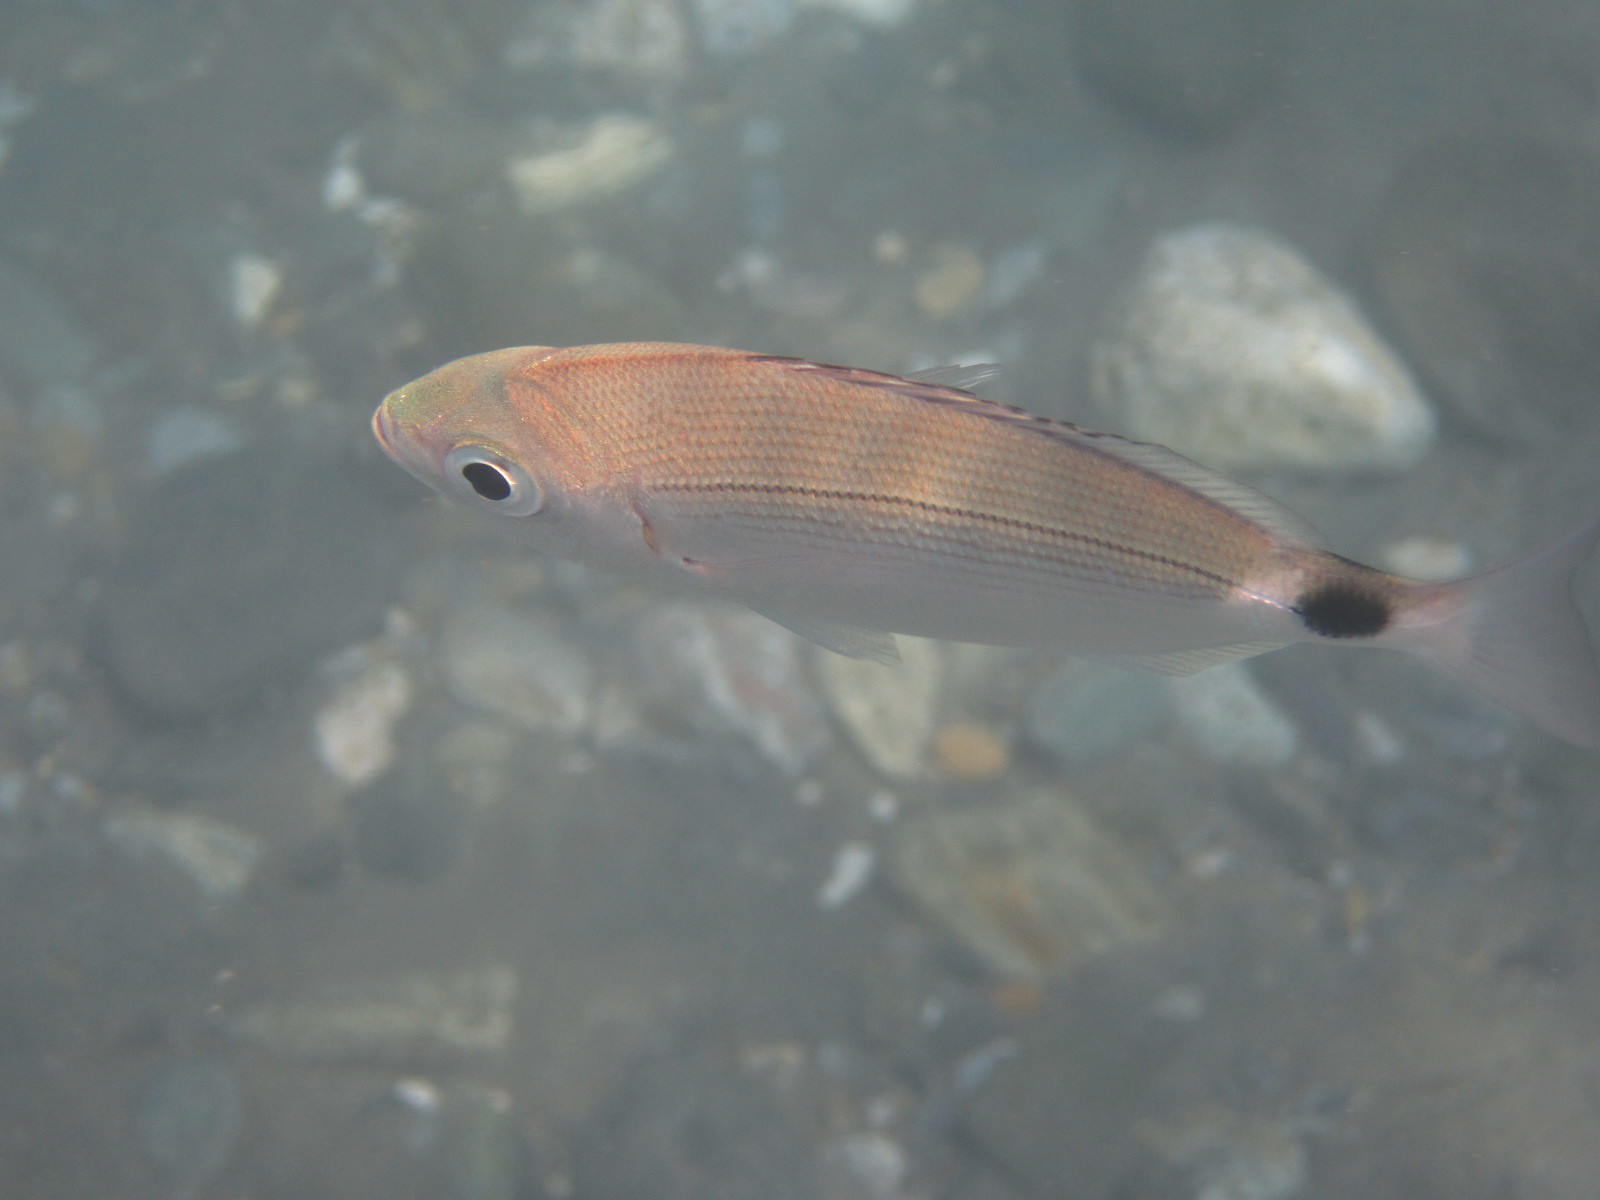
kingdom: Animalia
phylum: Chordata
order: Perciformes
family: Sparidae
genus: Oblada
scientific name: Oblada melanura
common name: Saddled seabream
